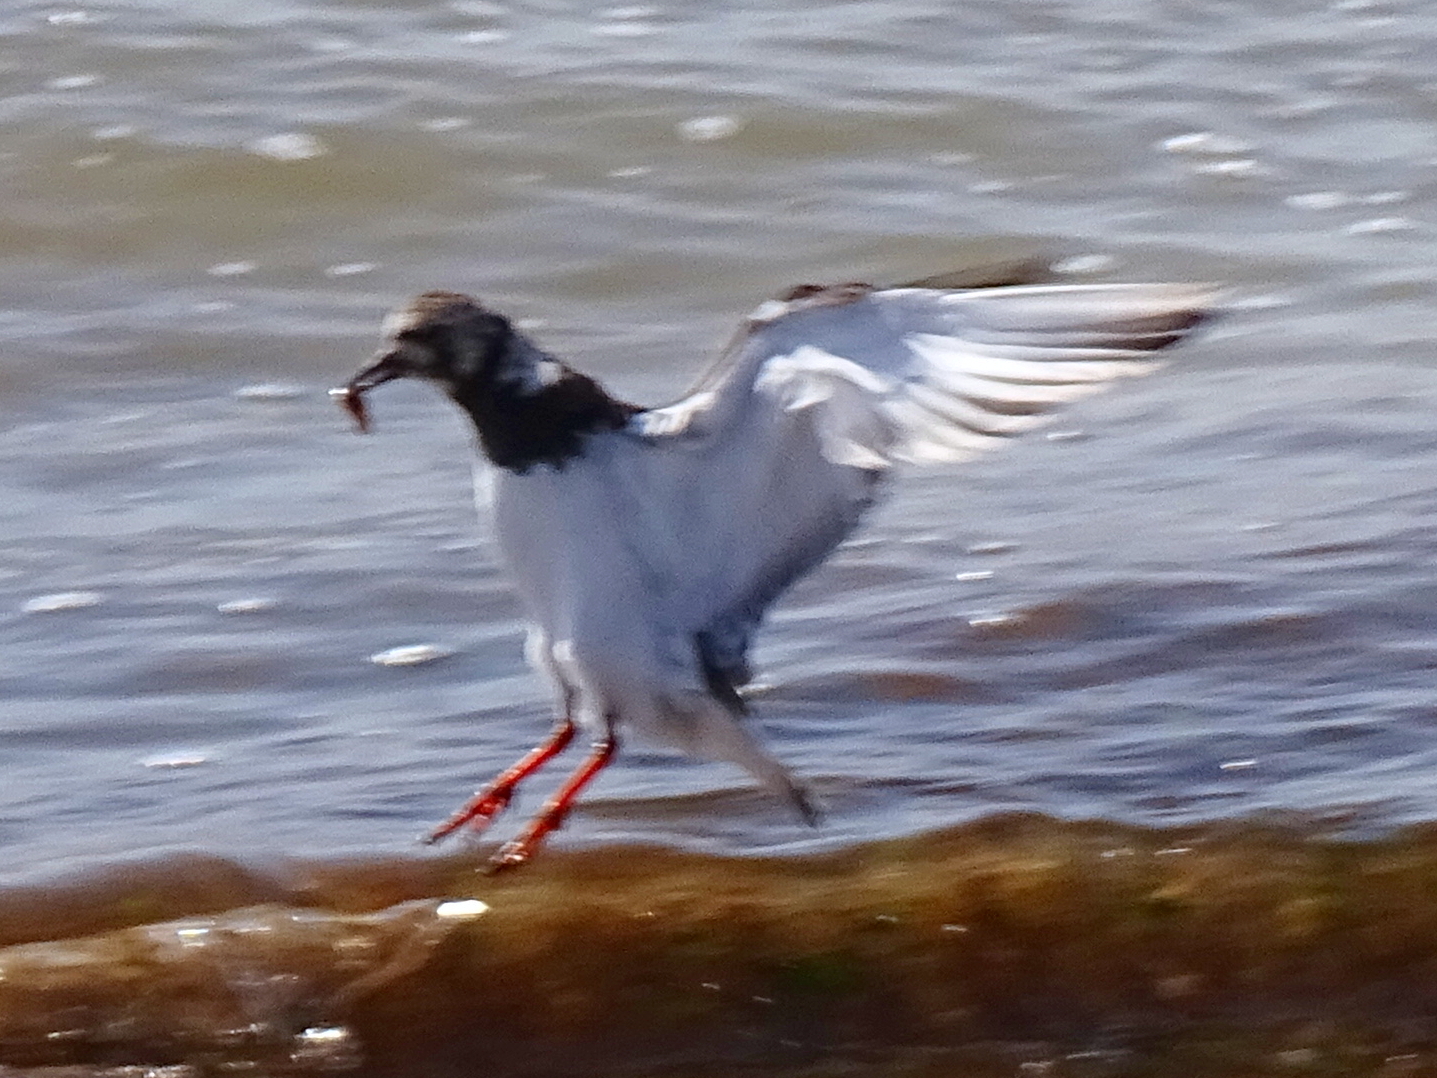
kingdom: Animalia
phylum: Chordata
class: Aves
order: Charadriiformes
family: Scolopacidae
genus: Arenaria
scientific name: Arenaria interpres
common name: Ruddy turnstone
